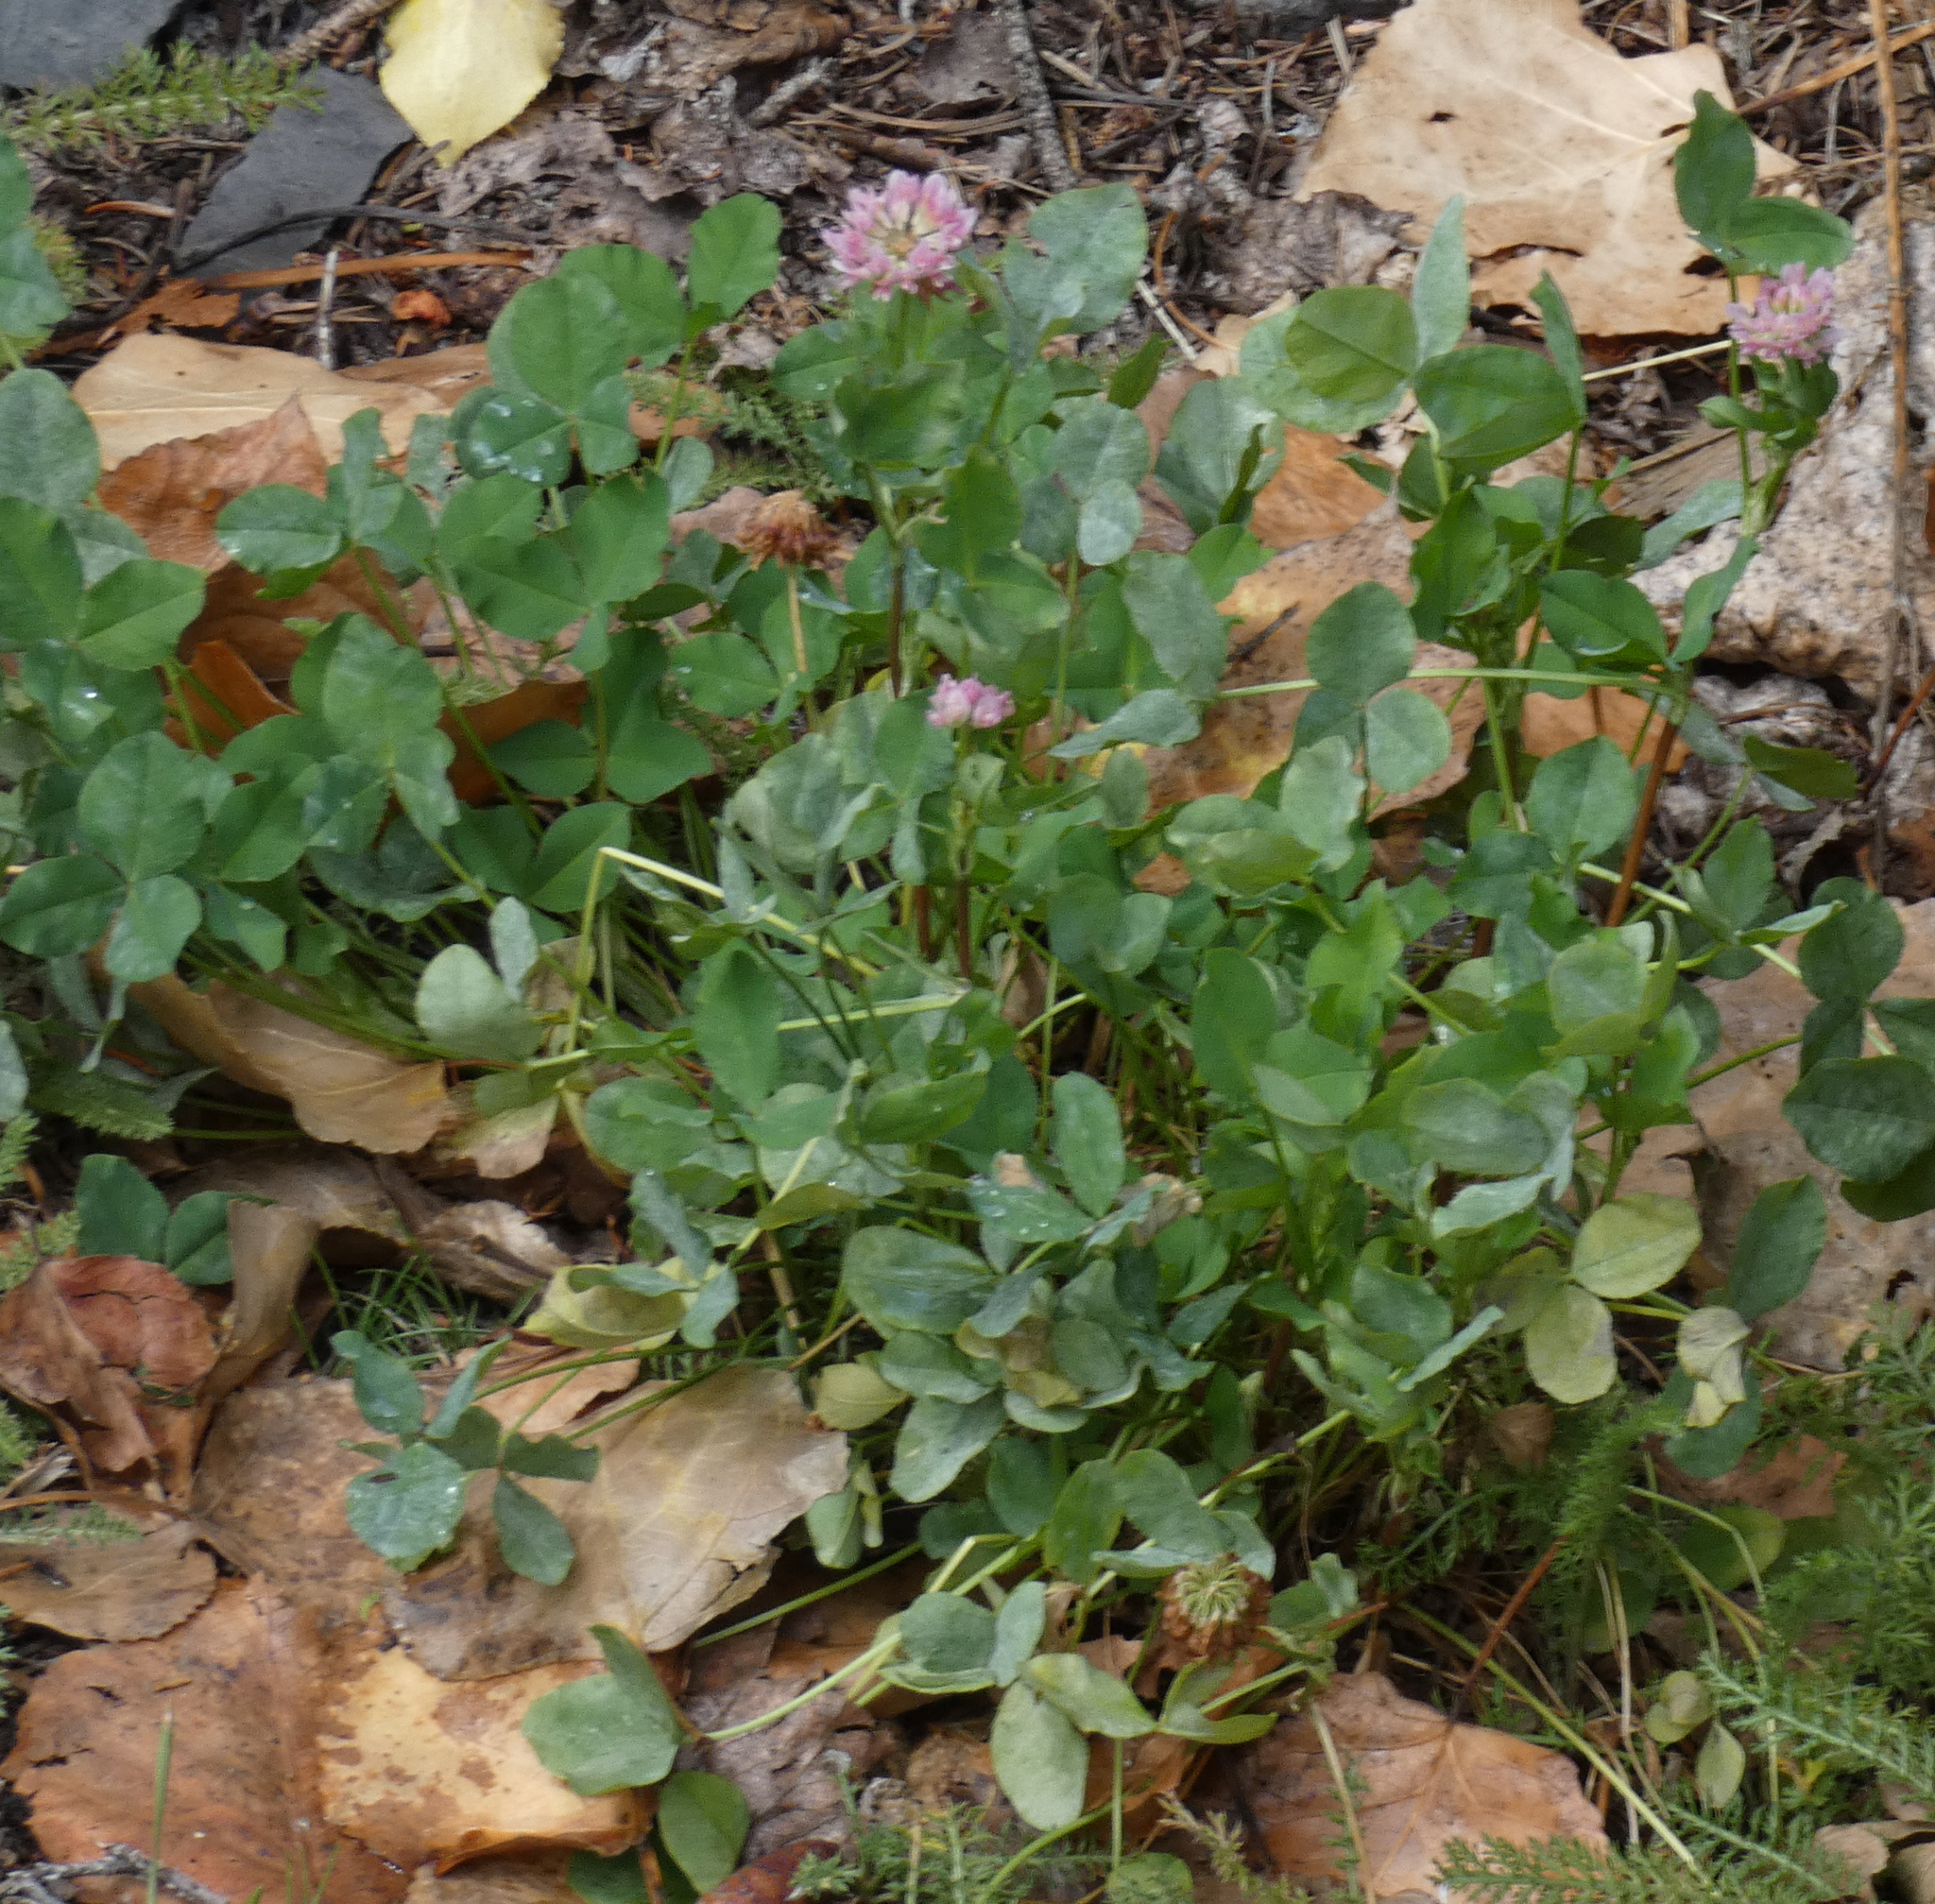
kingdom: Plantae
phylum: Tracheophyta
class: Magnoliopsida
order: Fabales
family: Fabaceae
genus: Trifolium
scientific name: Trifolium hybridum
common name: Alsike clover
